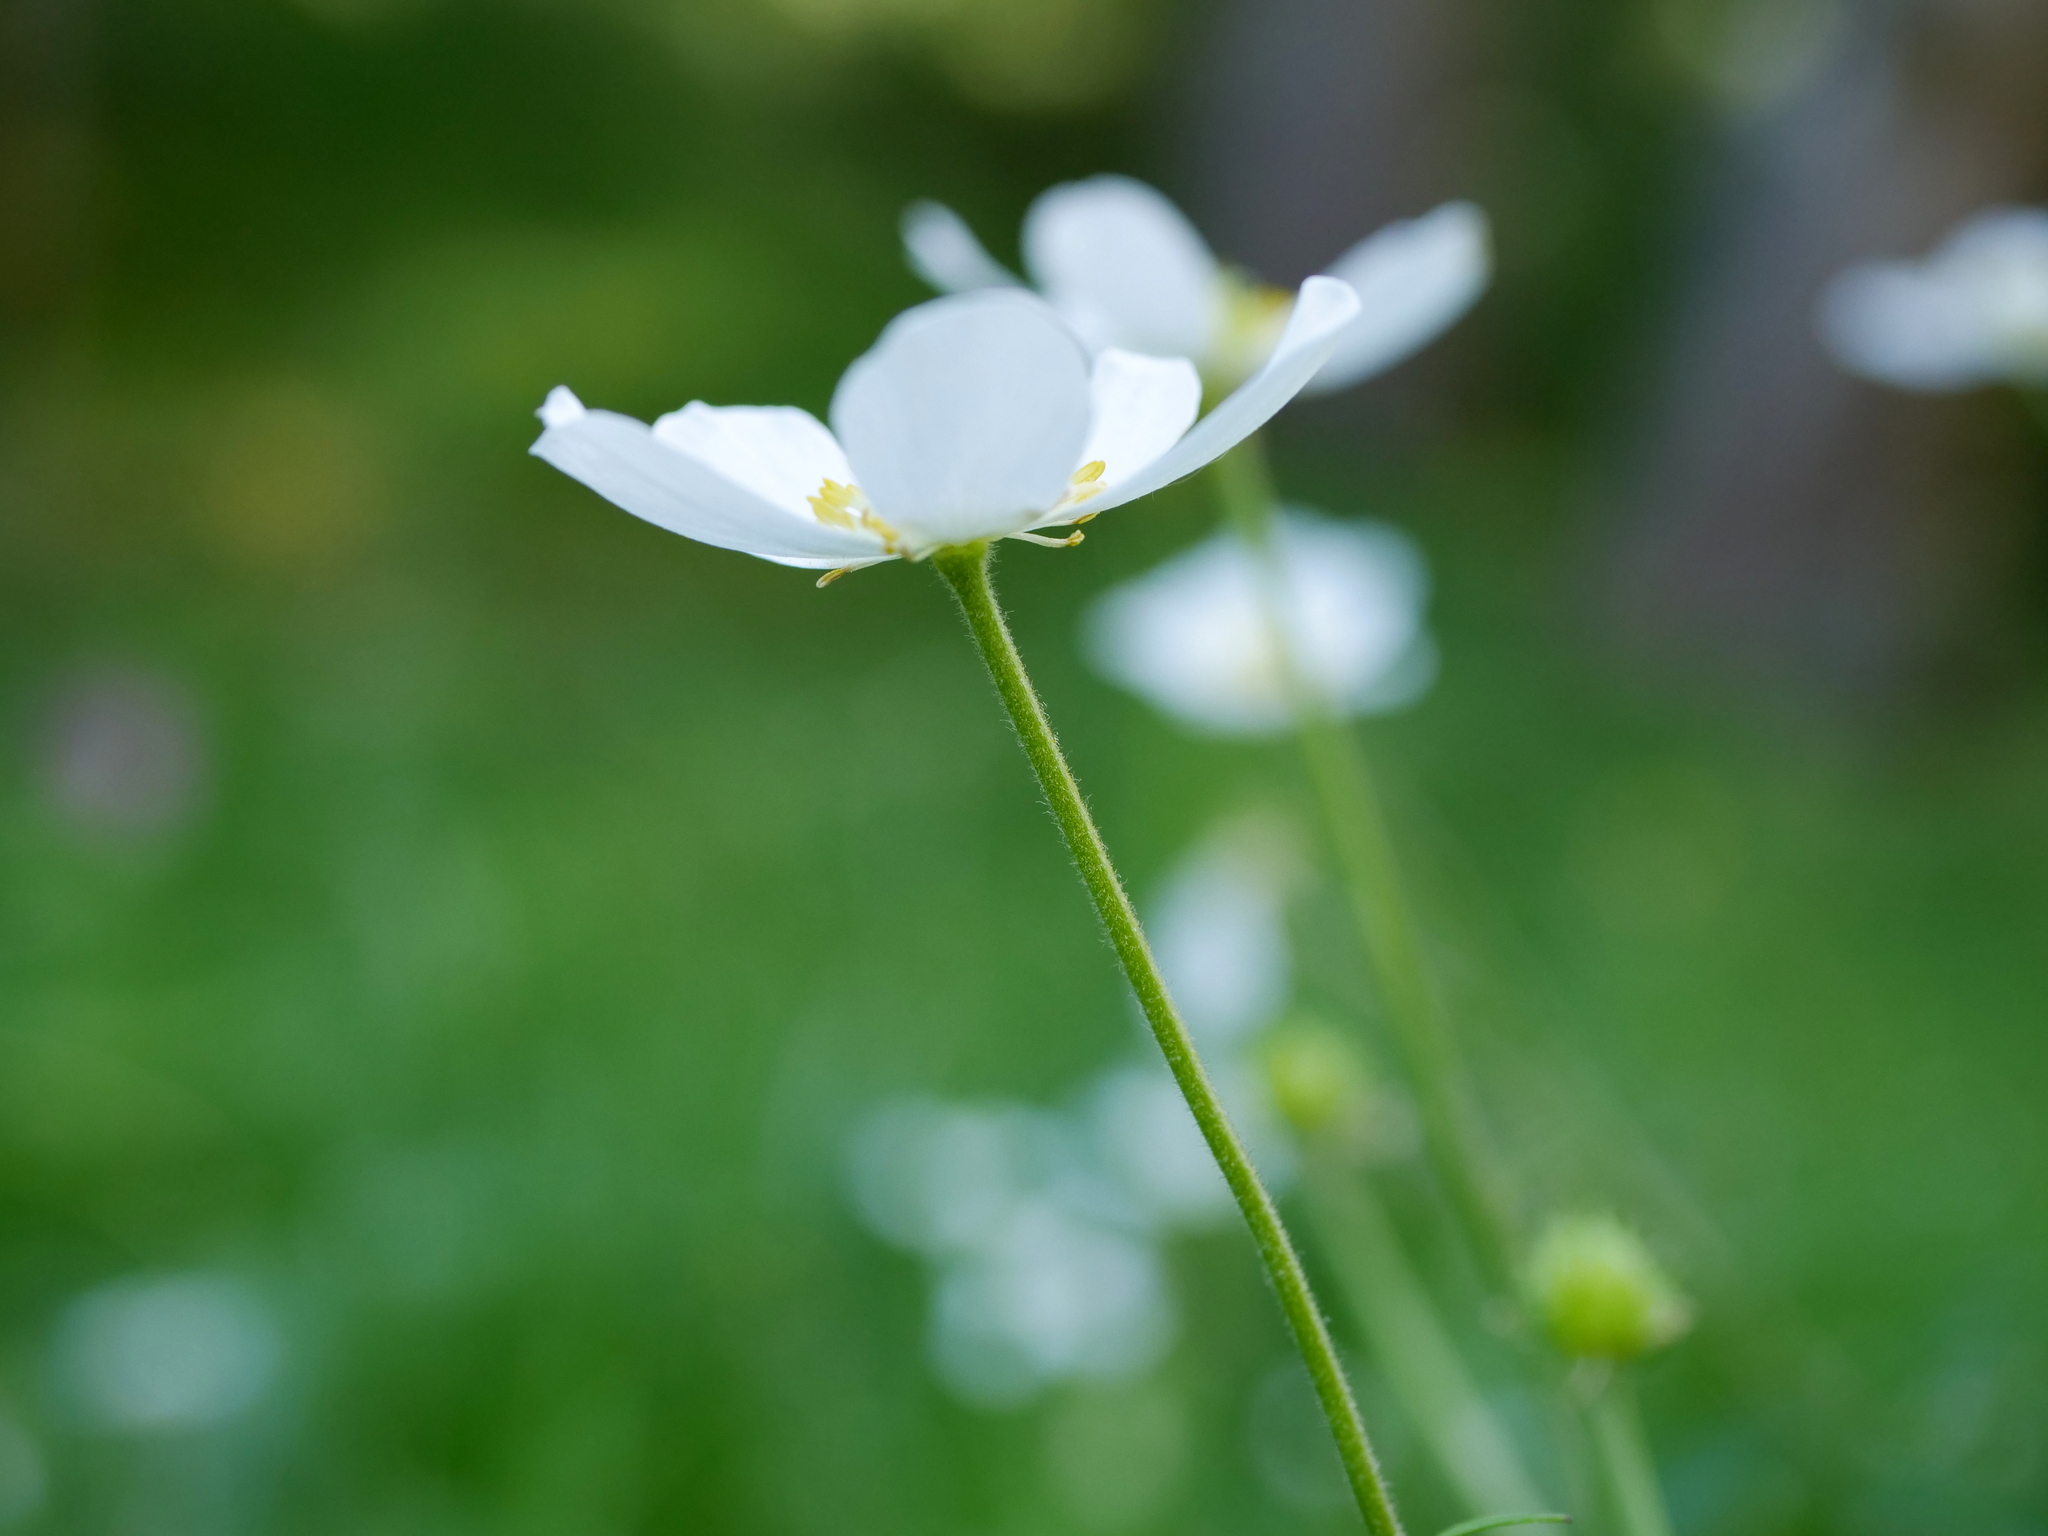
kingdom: Plantae
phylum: Tracheophyta
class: Magnoliopsida
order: Ranunculales
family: Ranunculaceae
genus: Ranunculus
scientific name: Ranunculus aconitifolius
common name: Aconite-leaved buttercup
